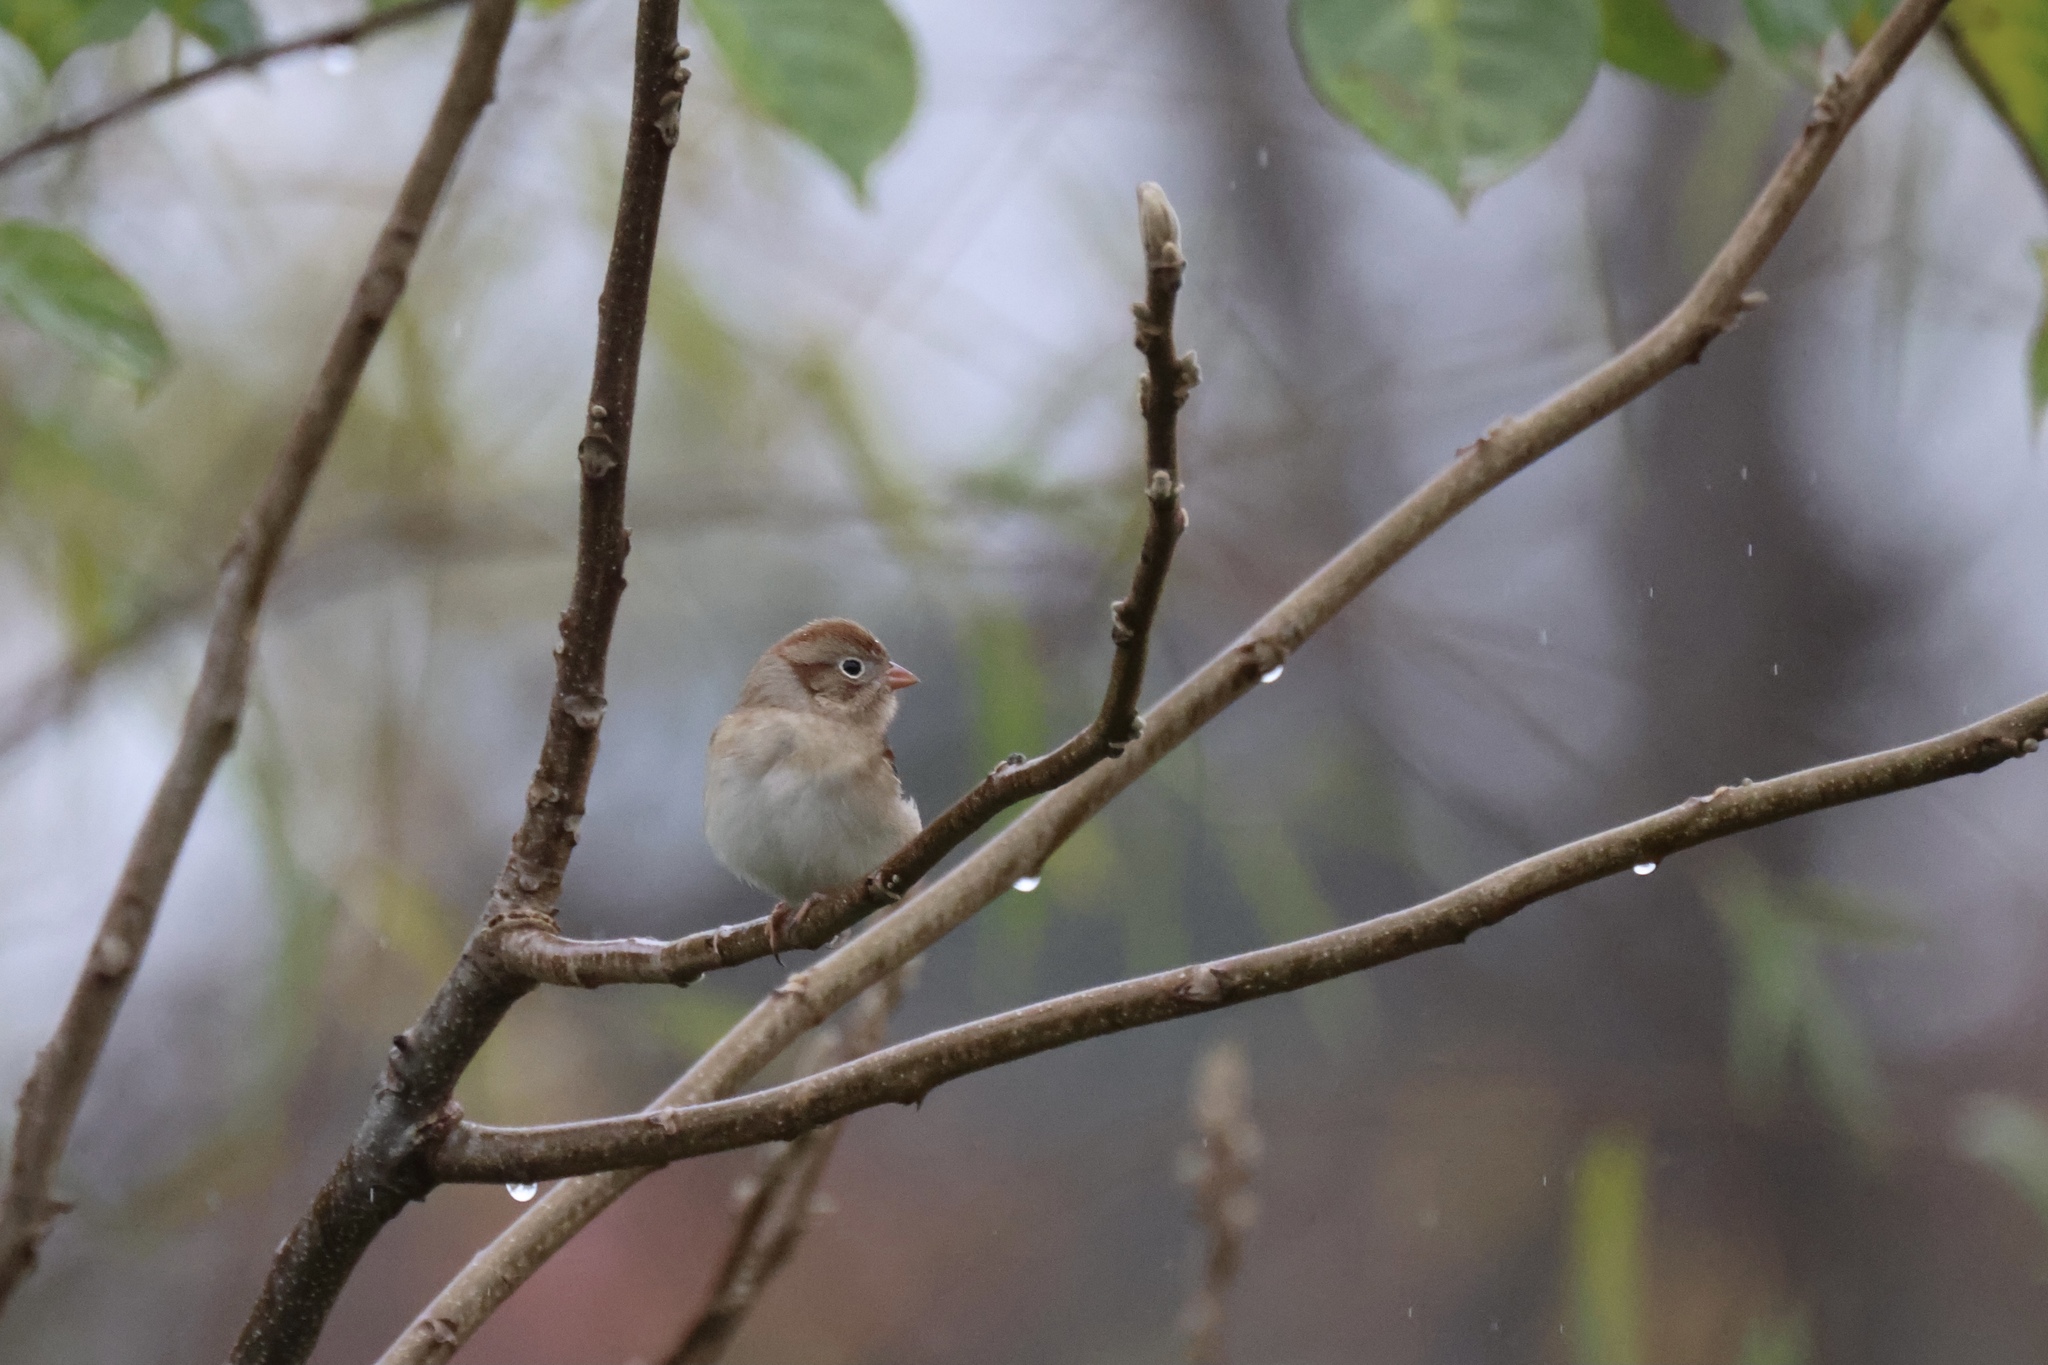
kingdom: Animalia
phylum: Chordata
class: Aves
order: Passeriformes
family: Passerellidae
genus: Spizella
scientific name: Spizella pusilla
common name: Field sparrow
